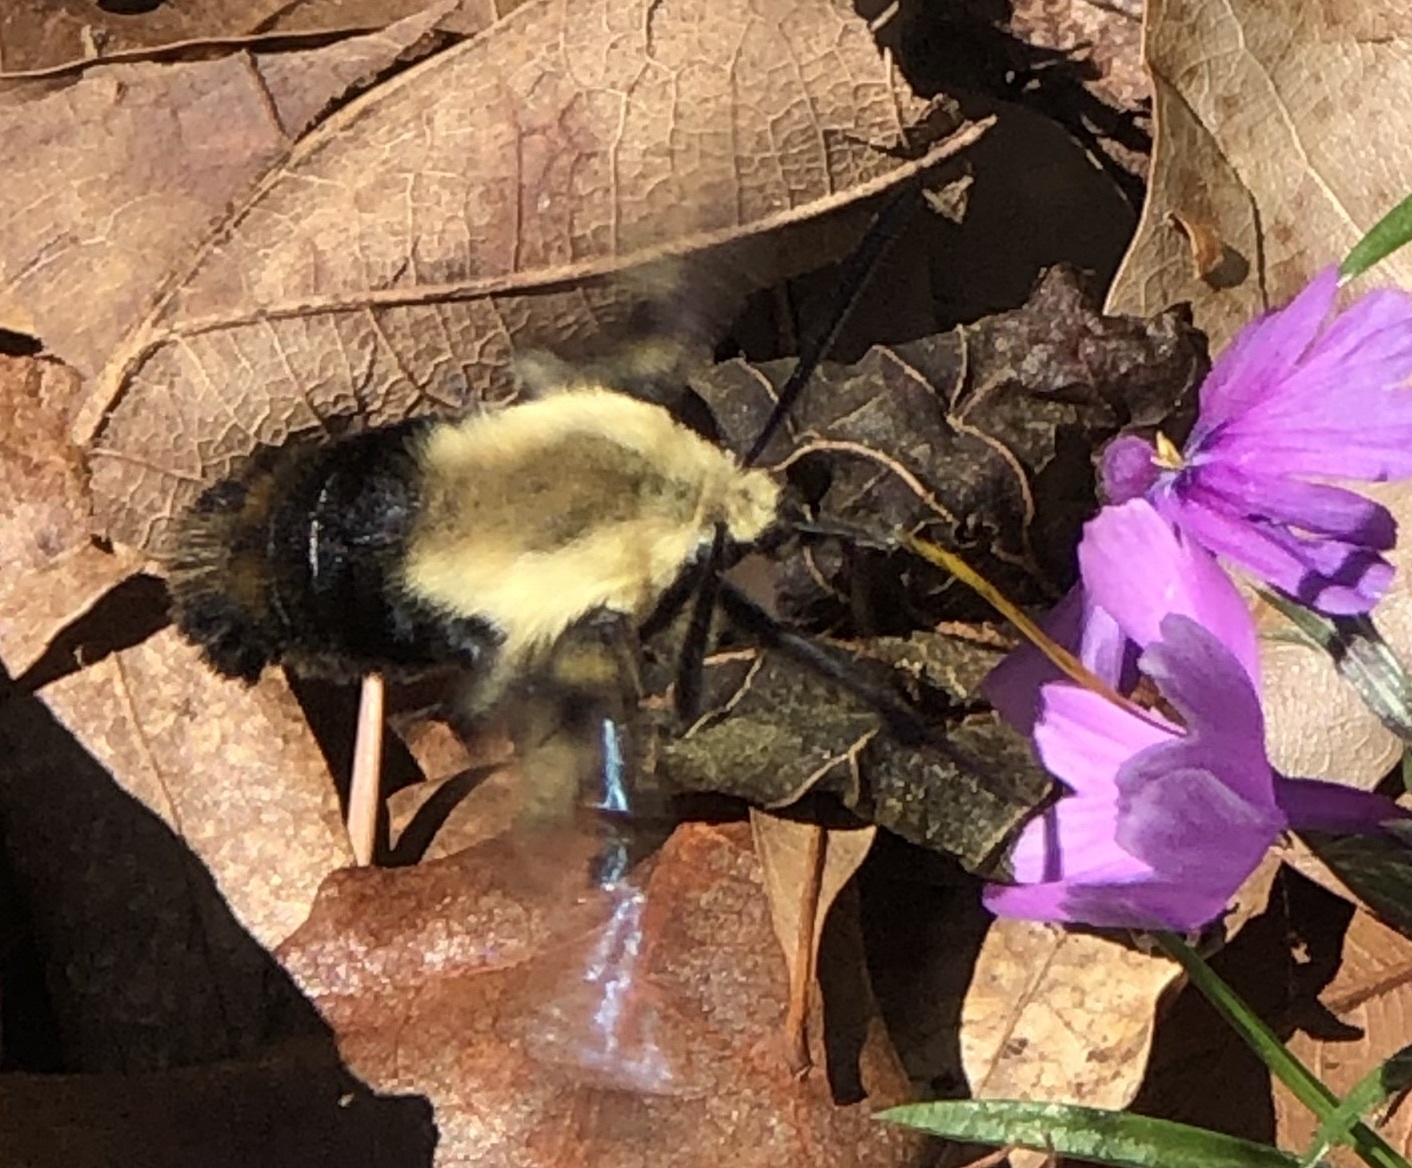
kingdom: Animalia
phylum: Arthropoda
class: Insecta
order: Lepidoptera
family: Sphingidae
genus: Hemaris
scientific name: Hemaris diffinis
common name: Bumblebee moth
